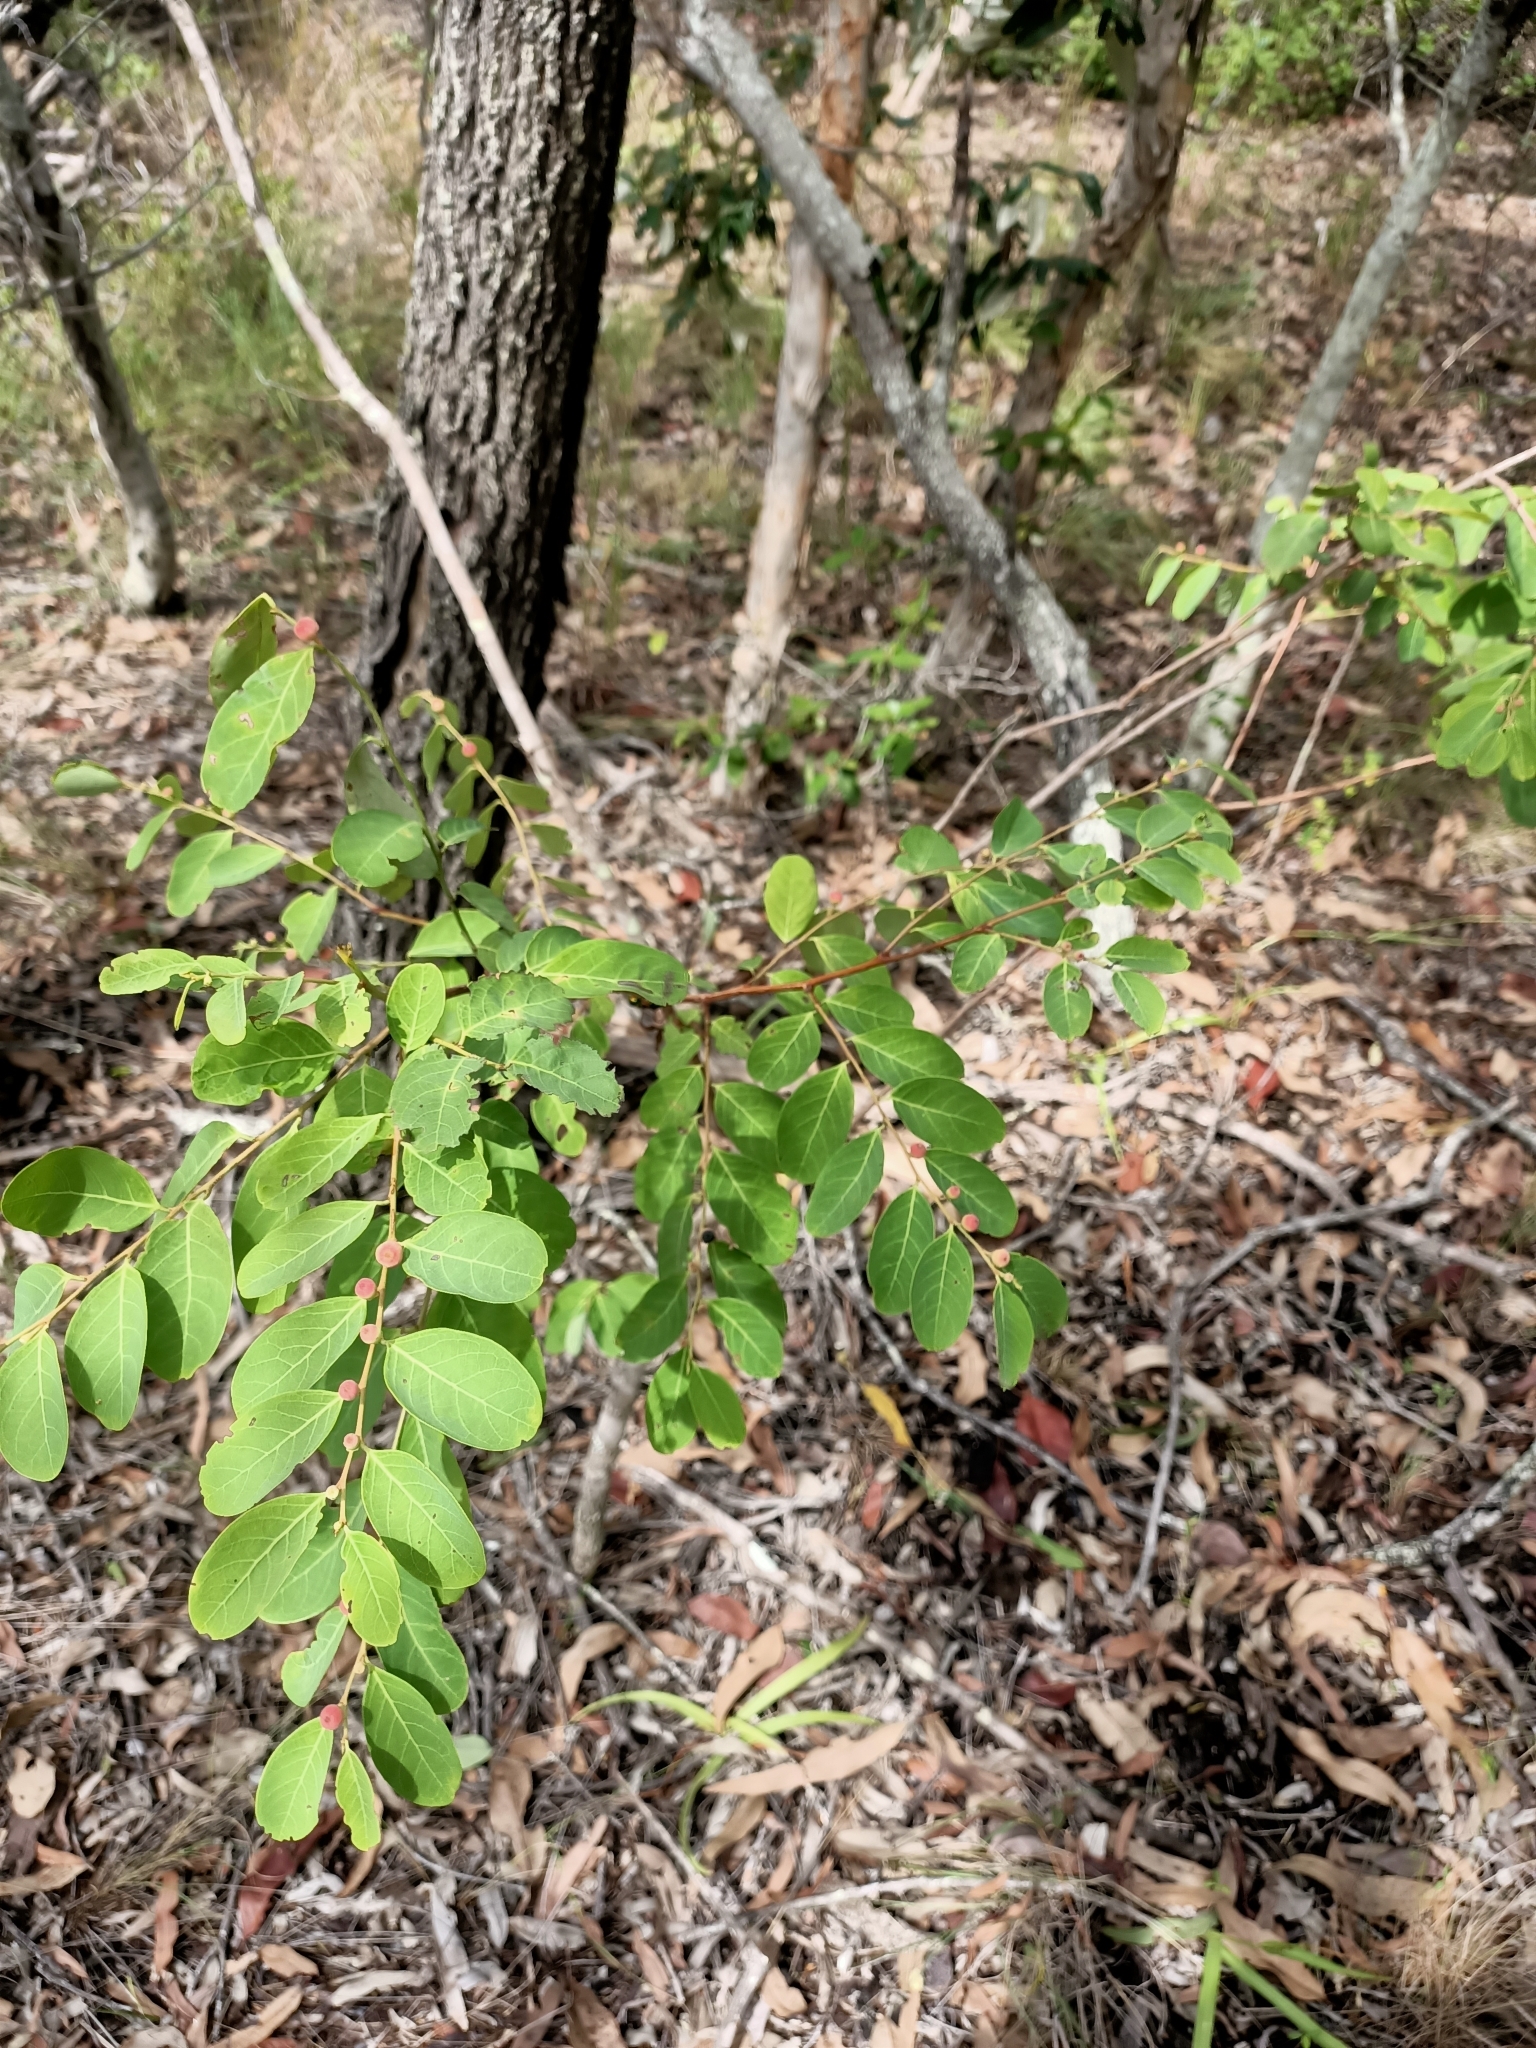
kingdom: Plantae
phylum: Tracheophyta
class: Magnoliopsida
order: Malpighiales
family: Phyllanthaceae
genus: Breynia
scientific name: Breynia oblongifolia
